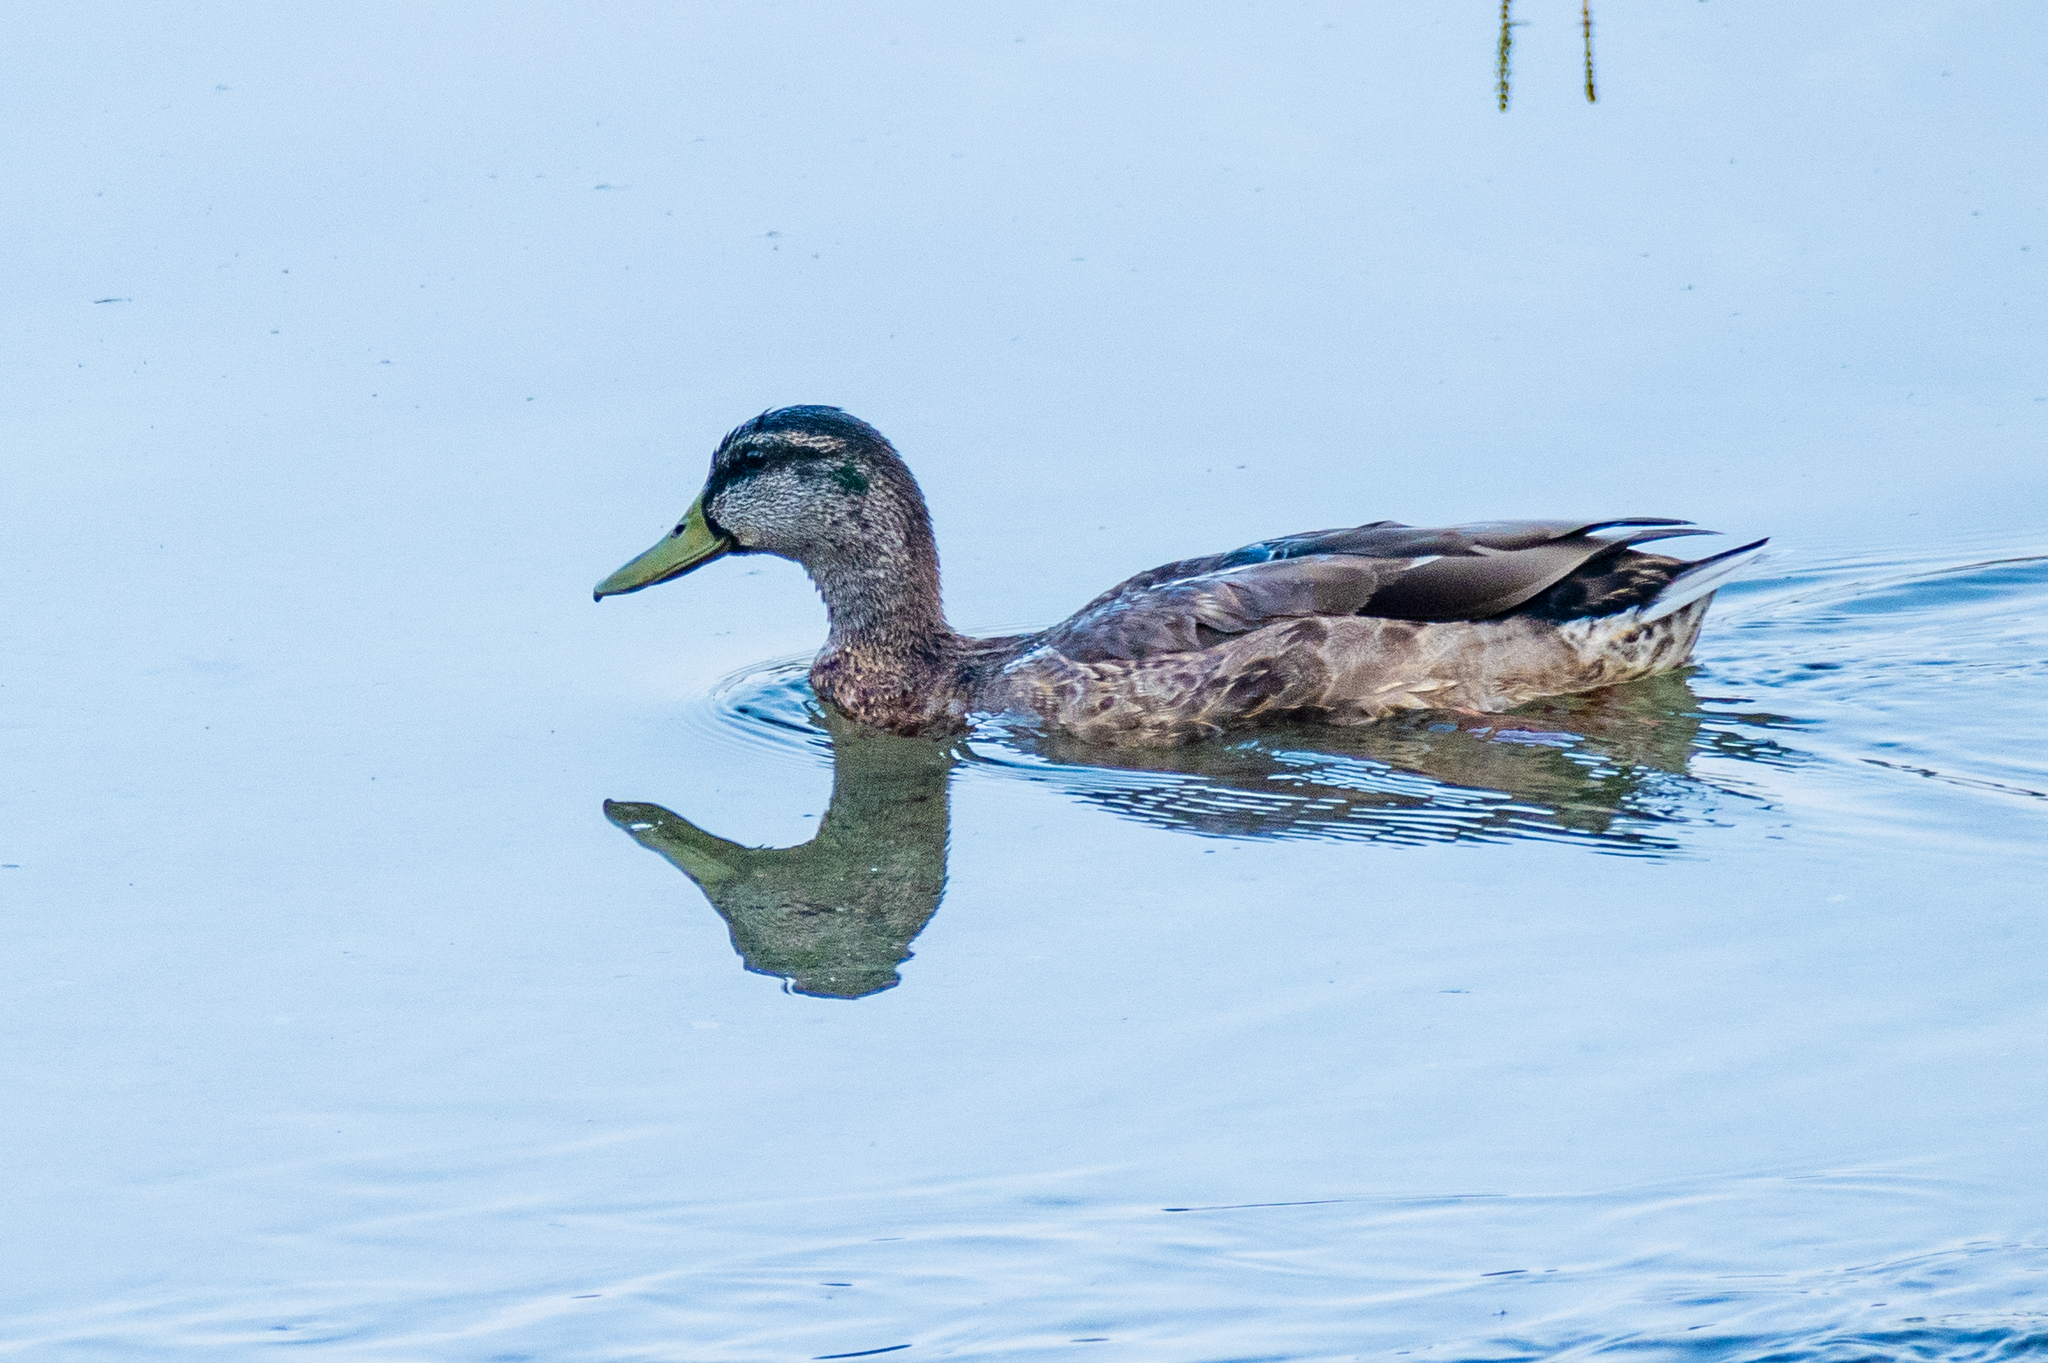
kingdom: Animalia
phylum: Chordata
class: Aves
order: Anseriformes
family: Anatidae
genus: Anas
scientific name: Anas platyrhynchos
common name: Mallard
